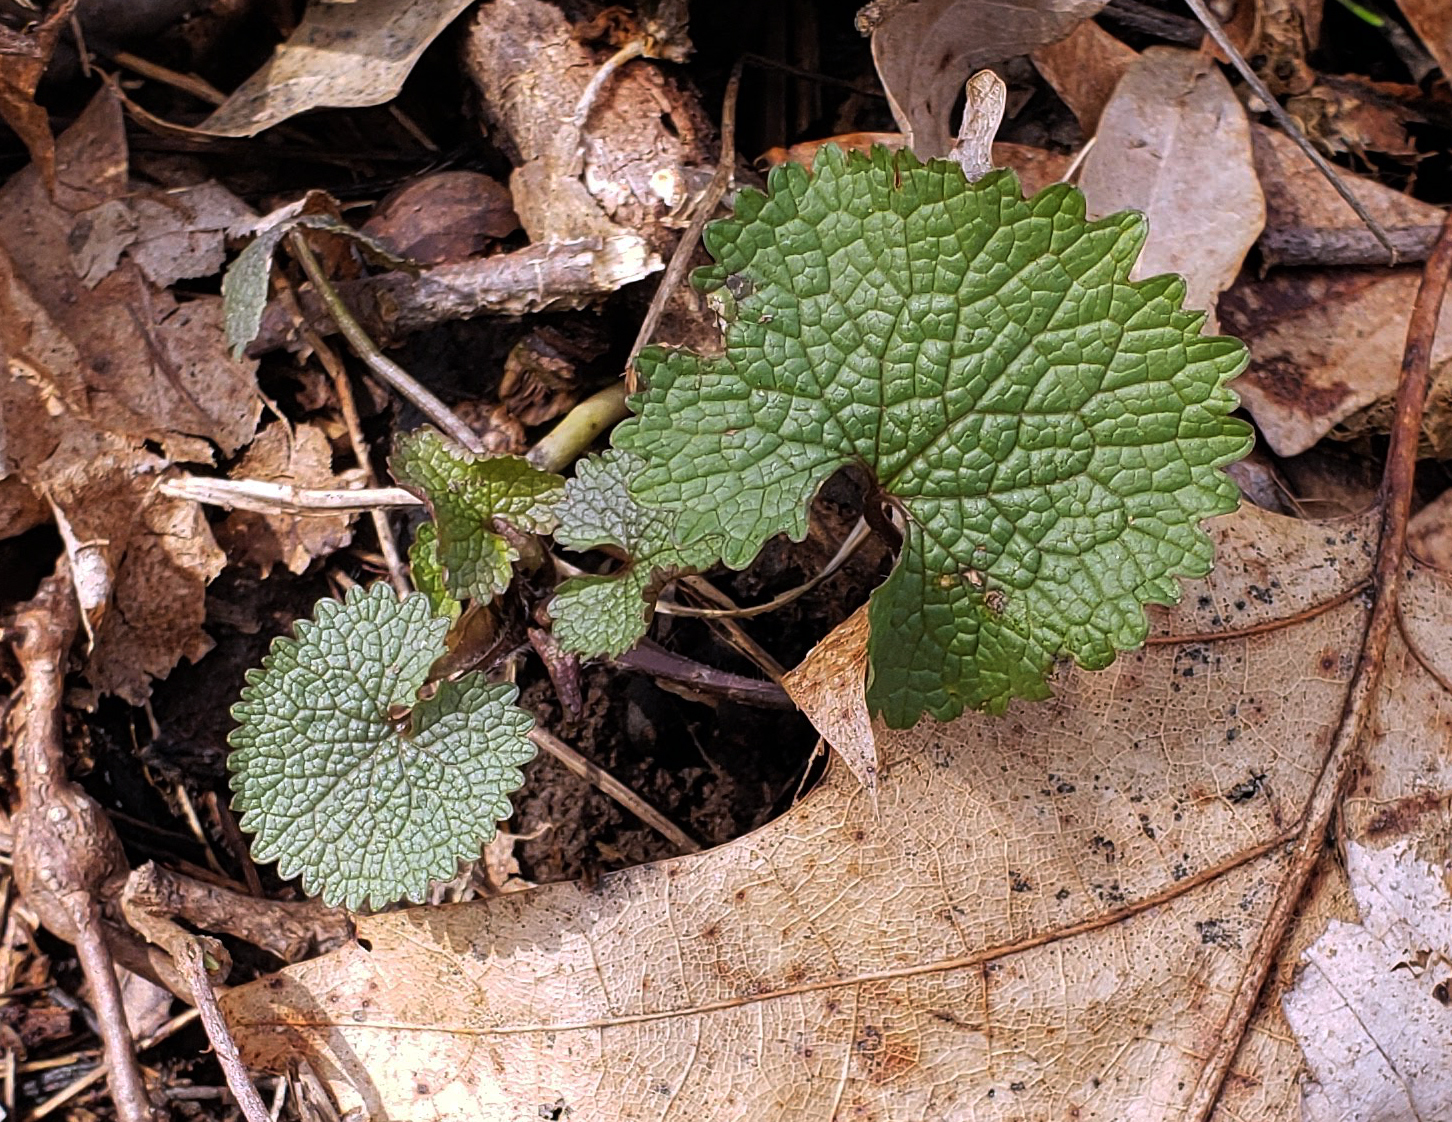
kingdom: Plantae
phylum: Tracheophyta
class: Magnoliopsida
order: Brassicales
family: Brassicaceae
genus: Alliaria
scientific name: Alliaria petiolata
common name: Garlic mustard
